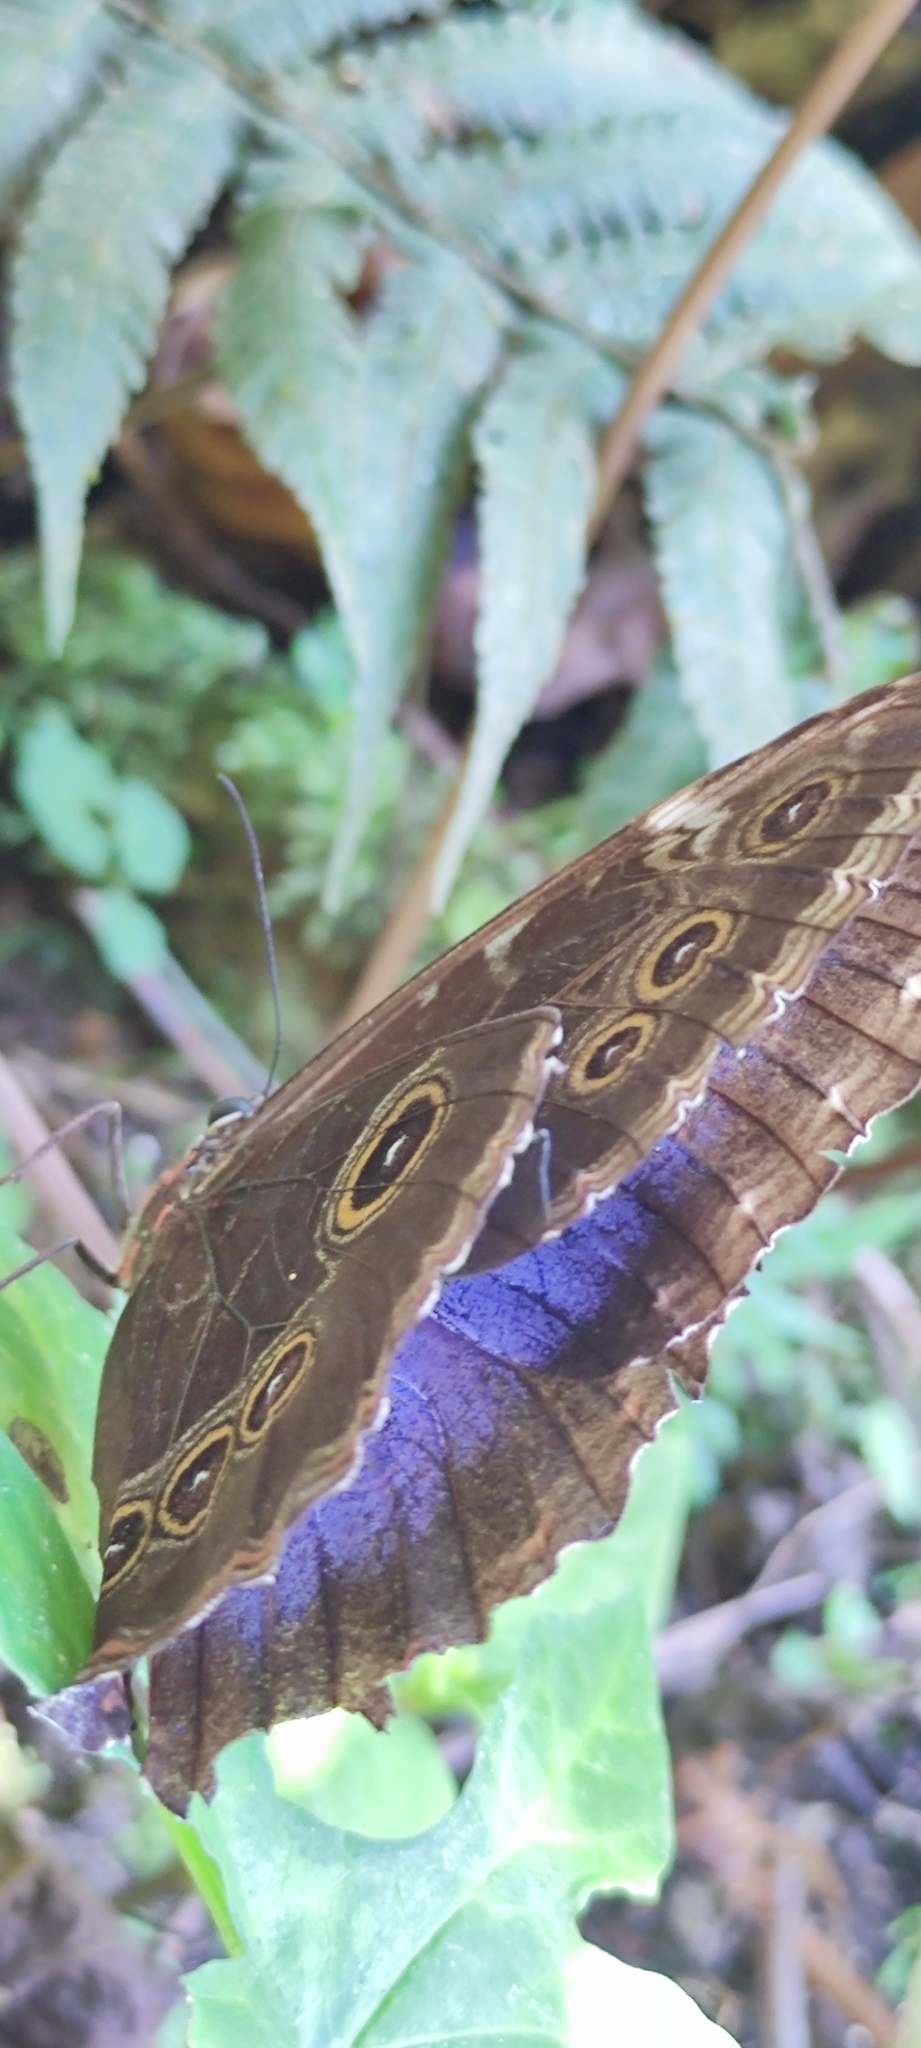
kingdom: Animalia
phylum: Arthropoda
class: Insecta
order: Lepidoptera
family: Nymphalidae
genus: Morpho
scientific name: Morpho helenor
